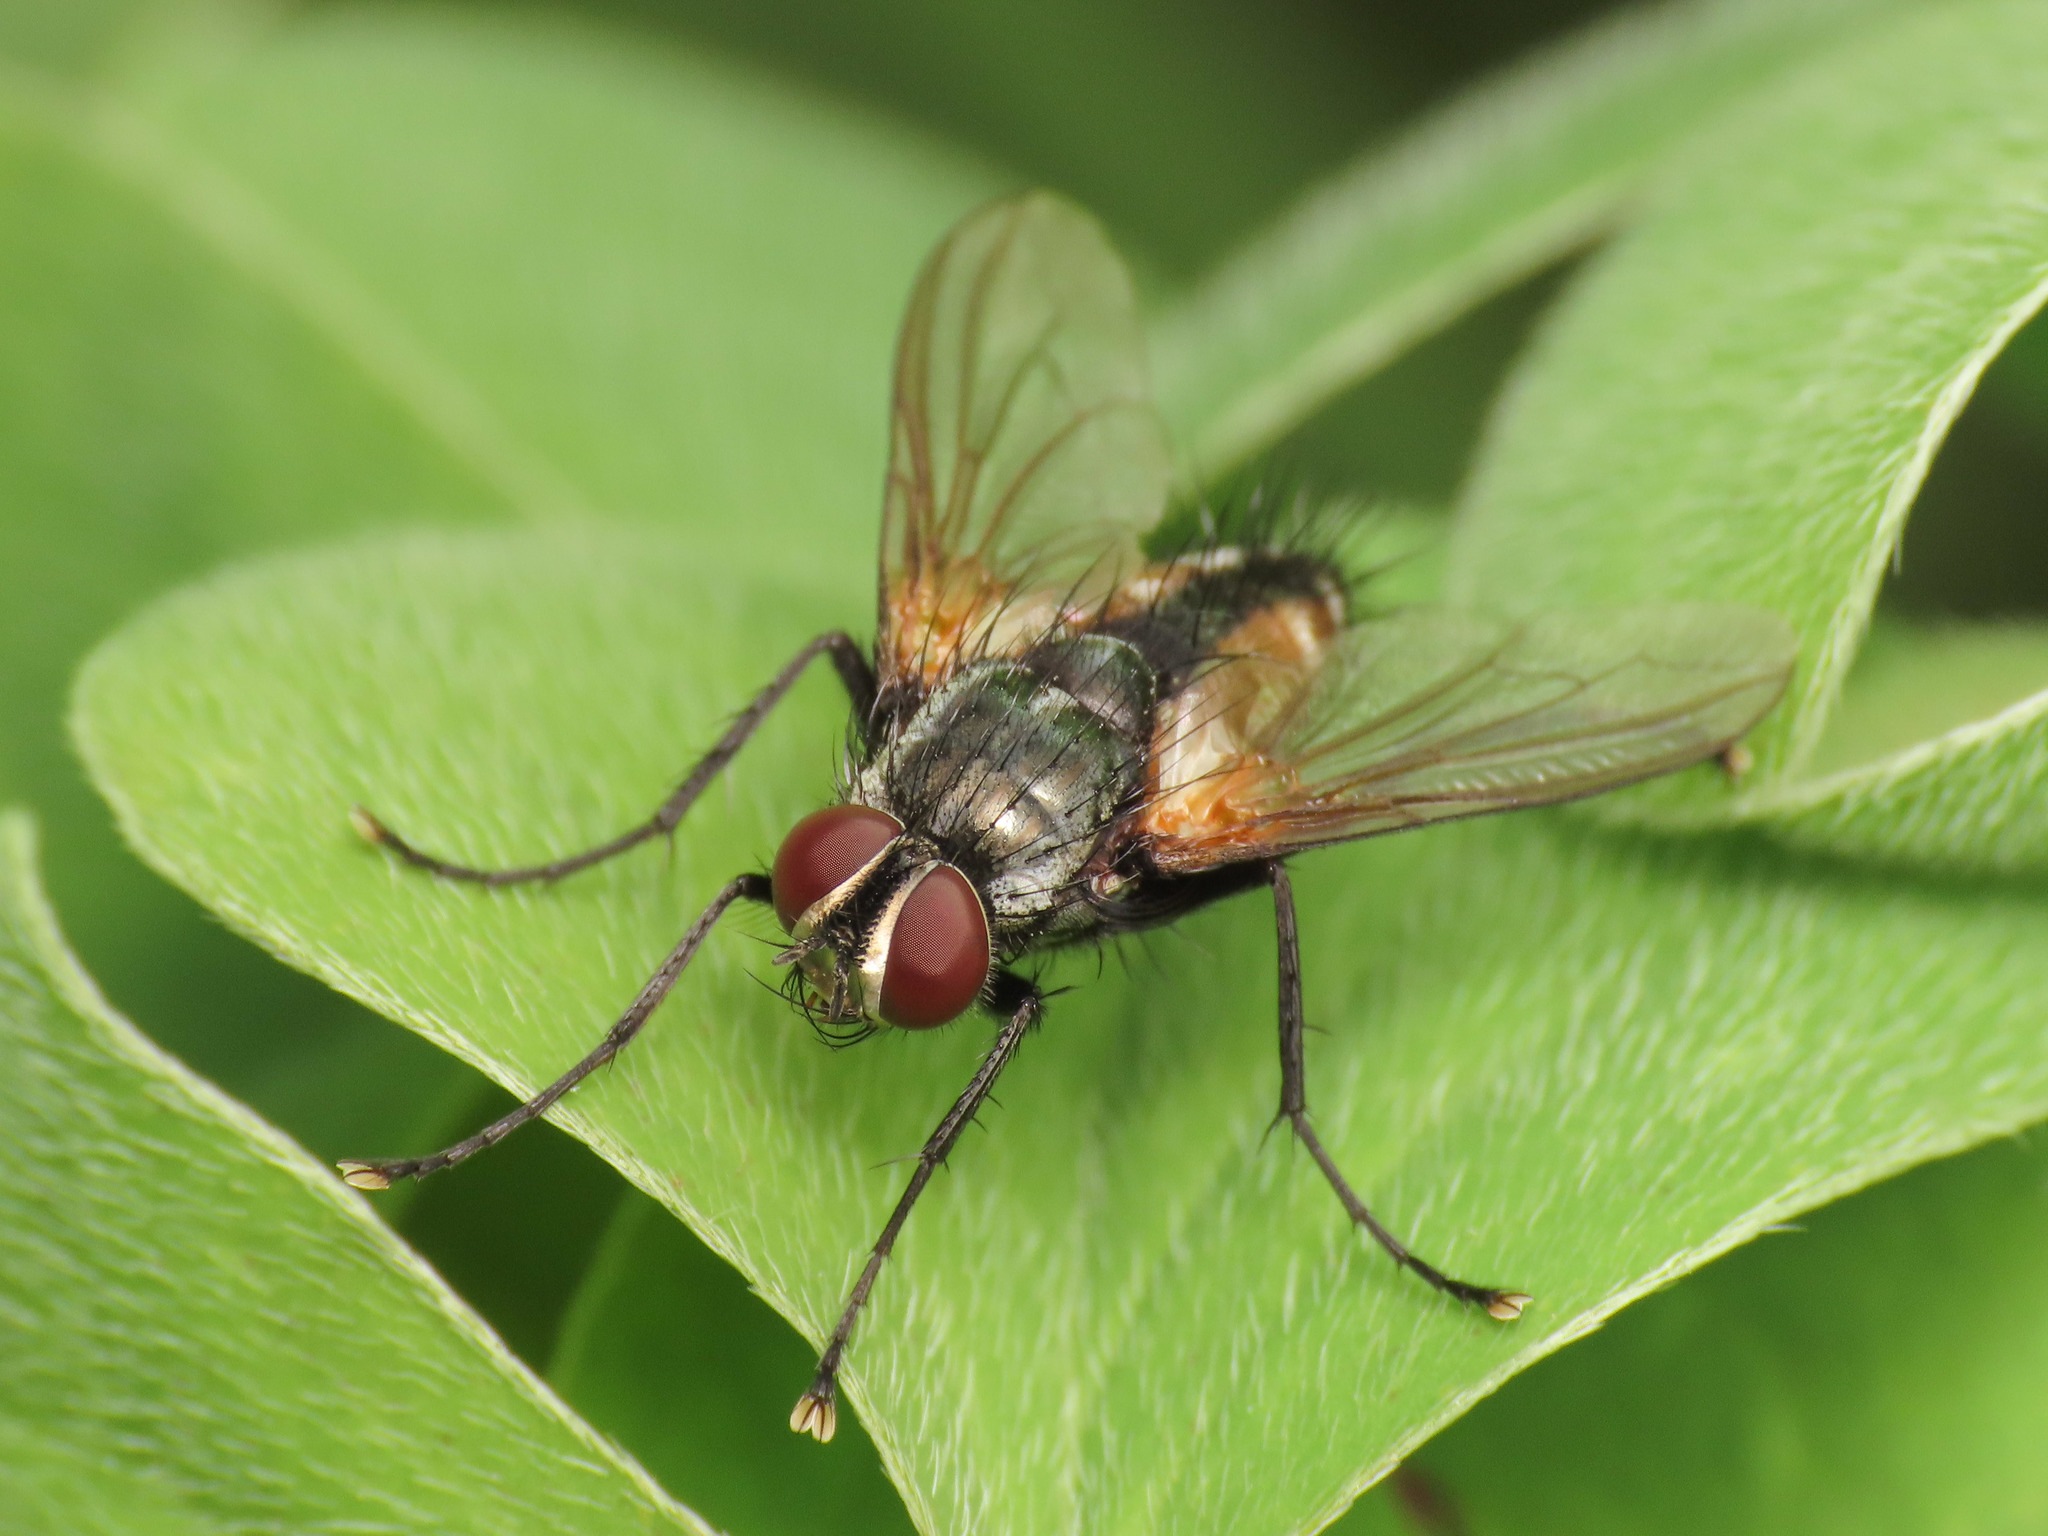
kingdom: Animalia
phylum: Arthropoda
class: Insecta
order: Diptera
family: Tachinidae
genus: Thelaira
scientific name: Thelaira solivaga
